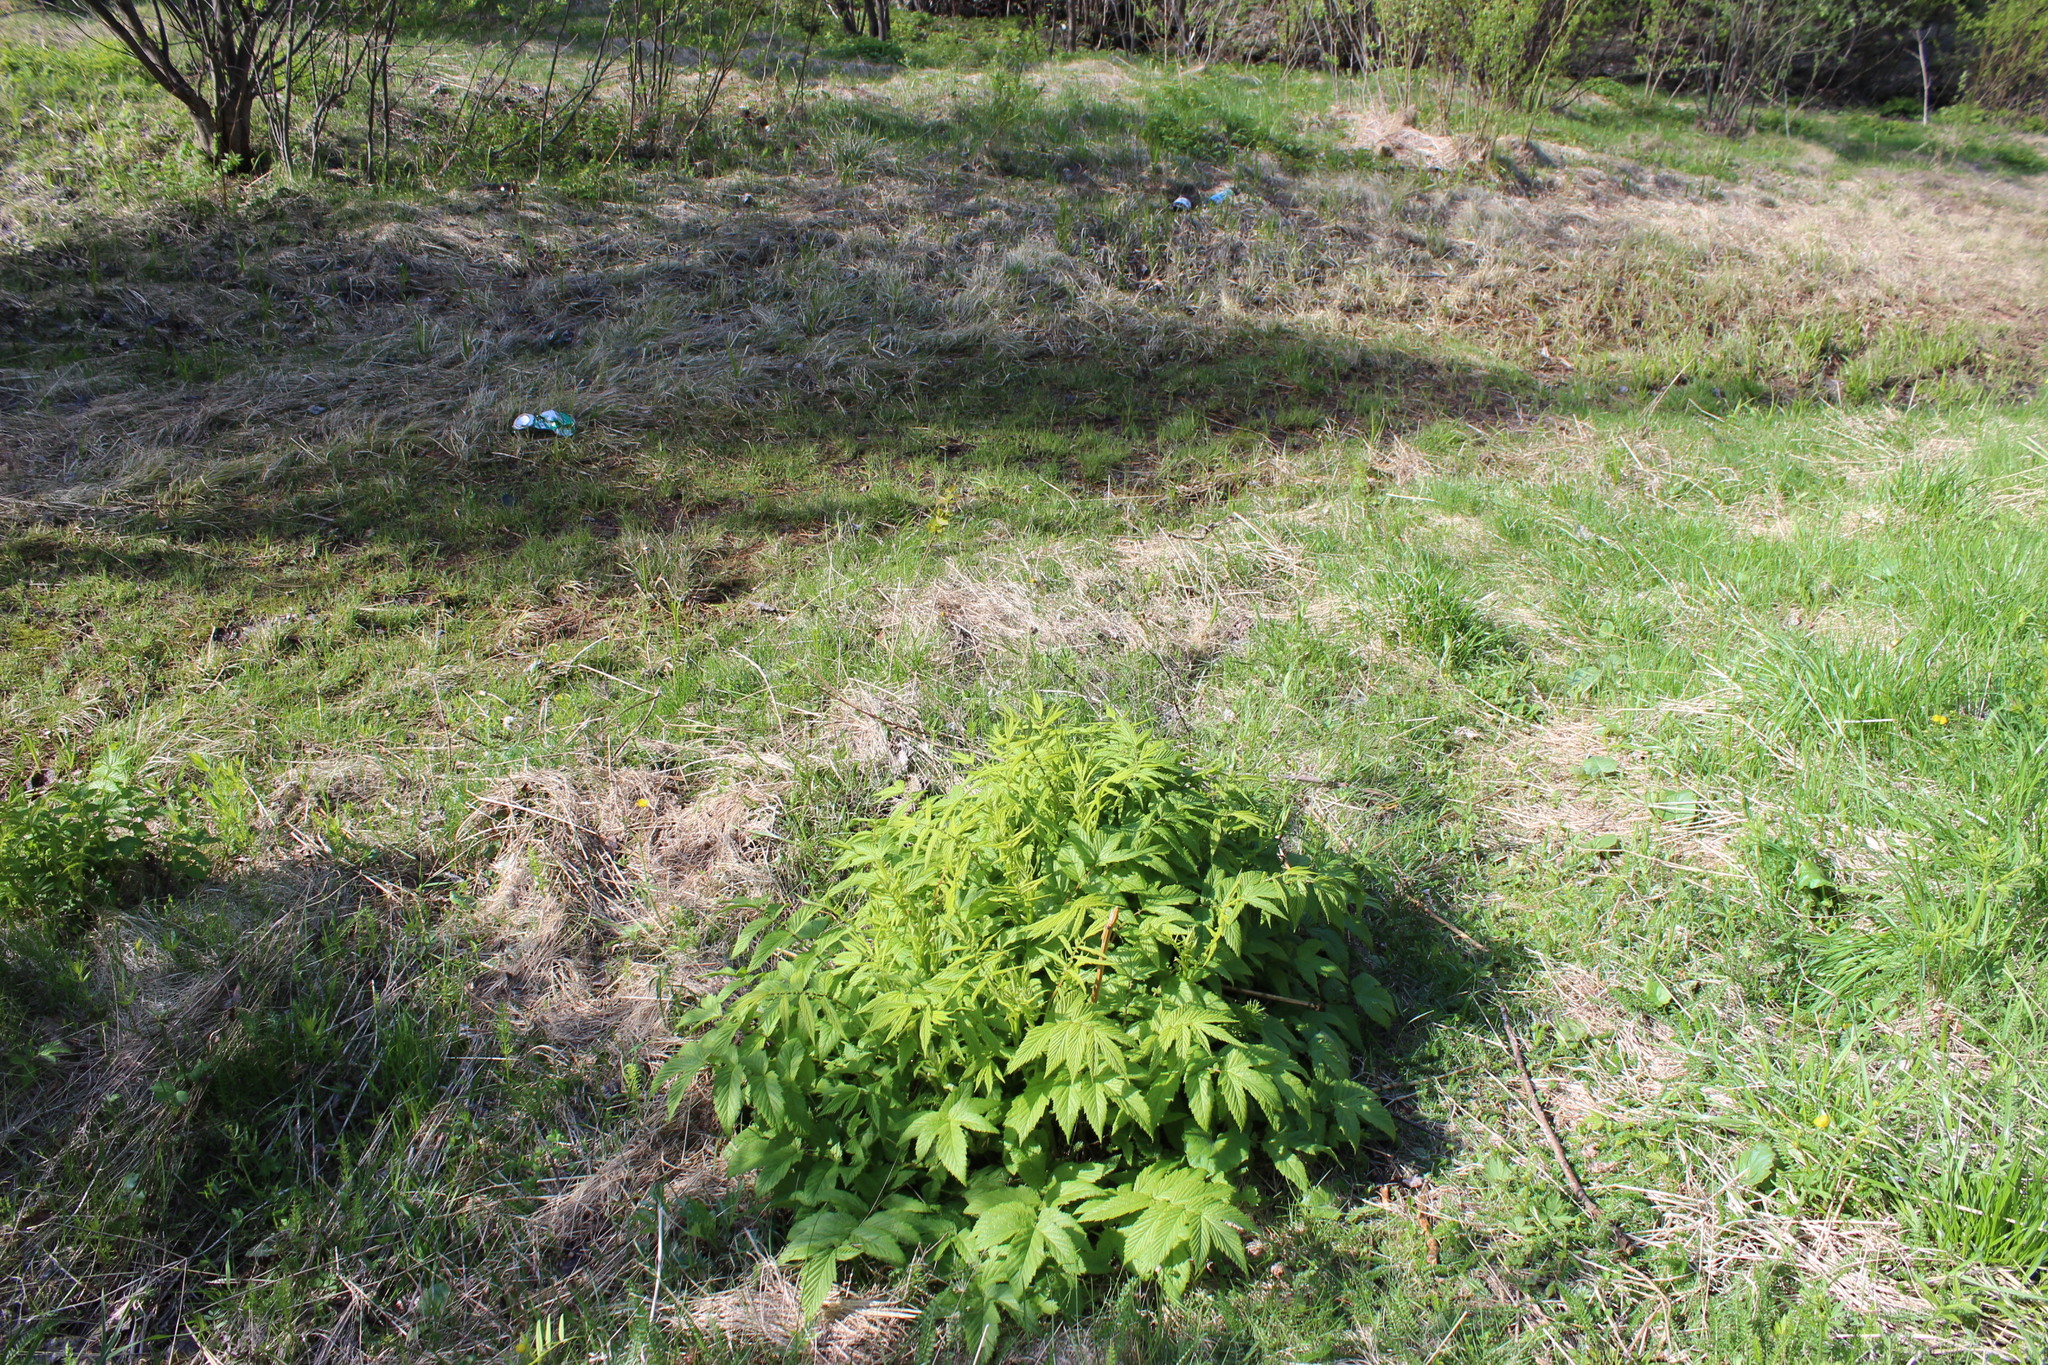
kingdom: Plantae
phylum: Tracheophyta
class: Magnoliopsida
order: Rosales
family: Rosaceae
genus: Filipendula
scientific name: Filipendula ulmaria
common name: Meadowsweet
